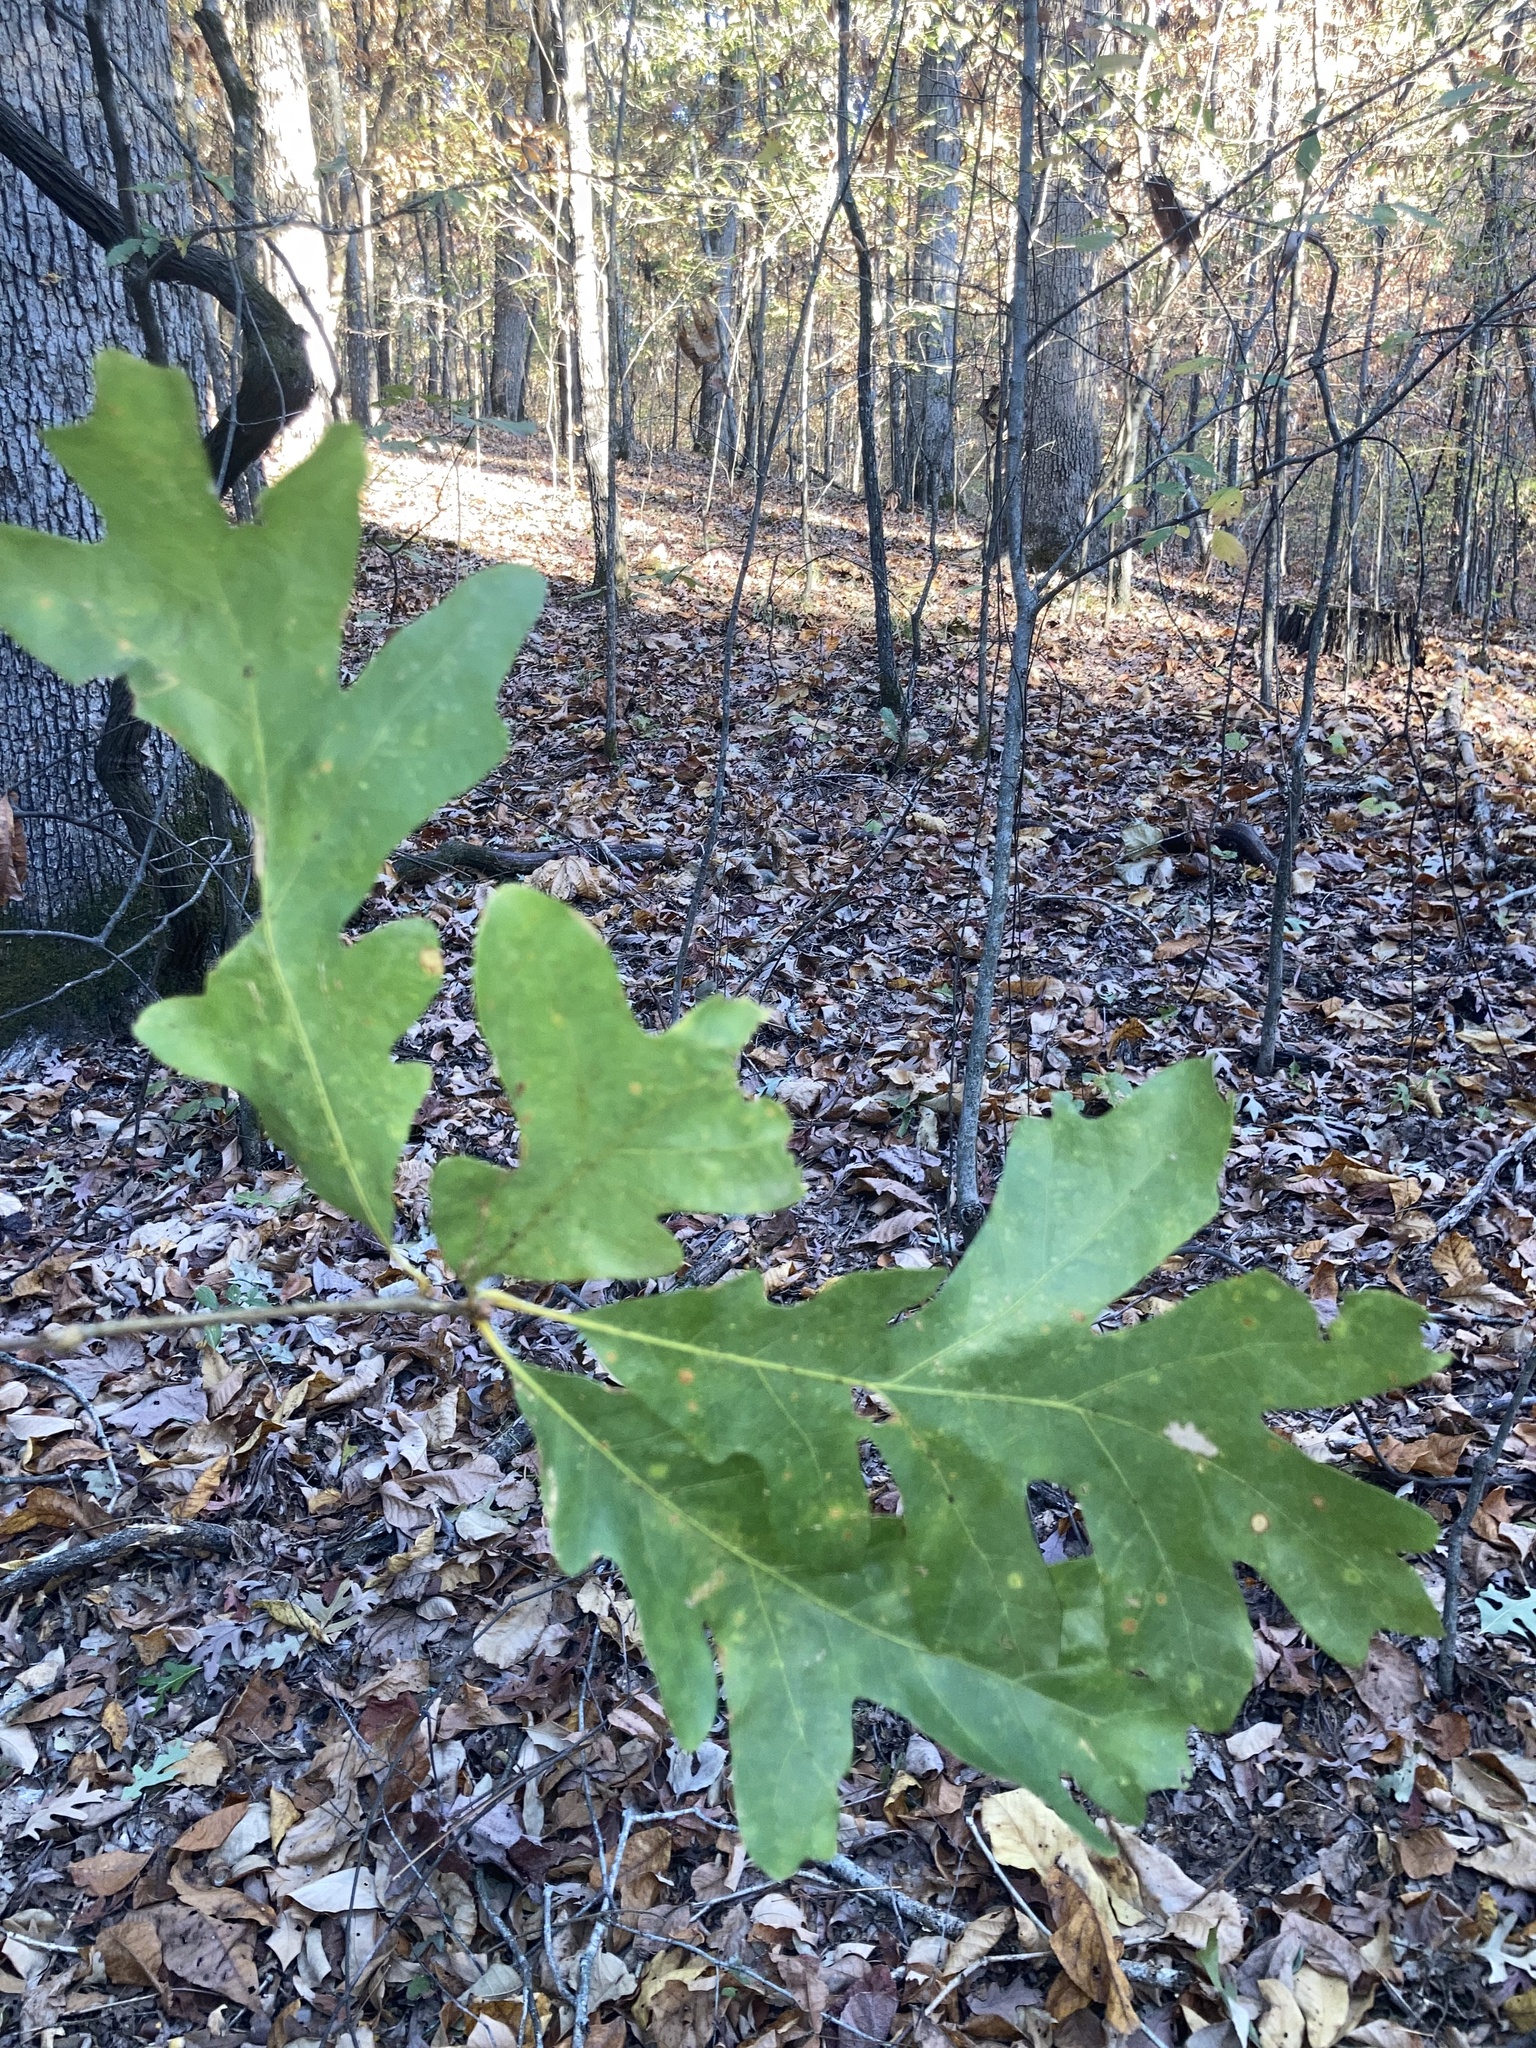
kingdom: Plantae
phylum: Tracheophyta
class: Magnoliopsida
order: Fagales
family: Fagaceae
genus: Quercus
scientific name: Quercus alba
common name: White oak
